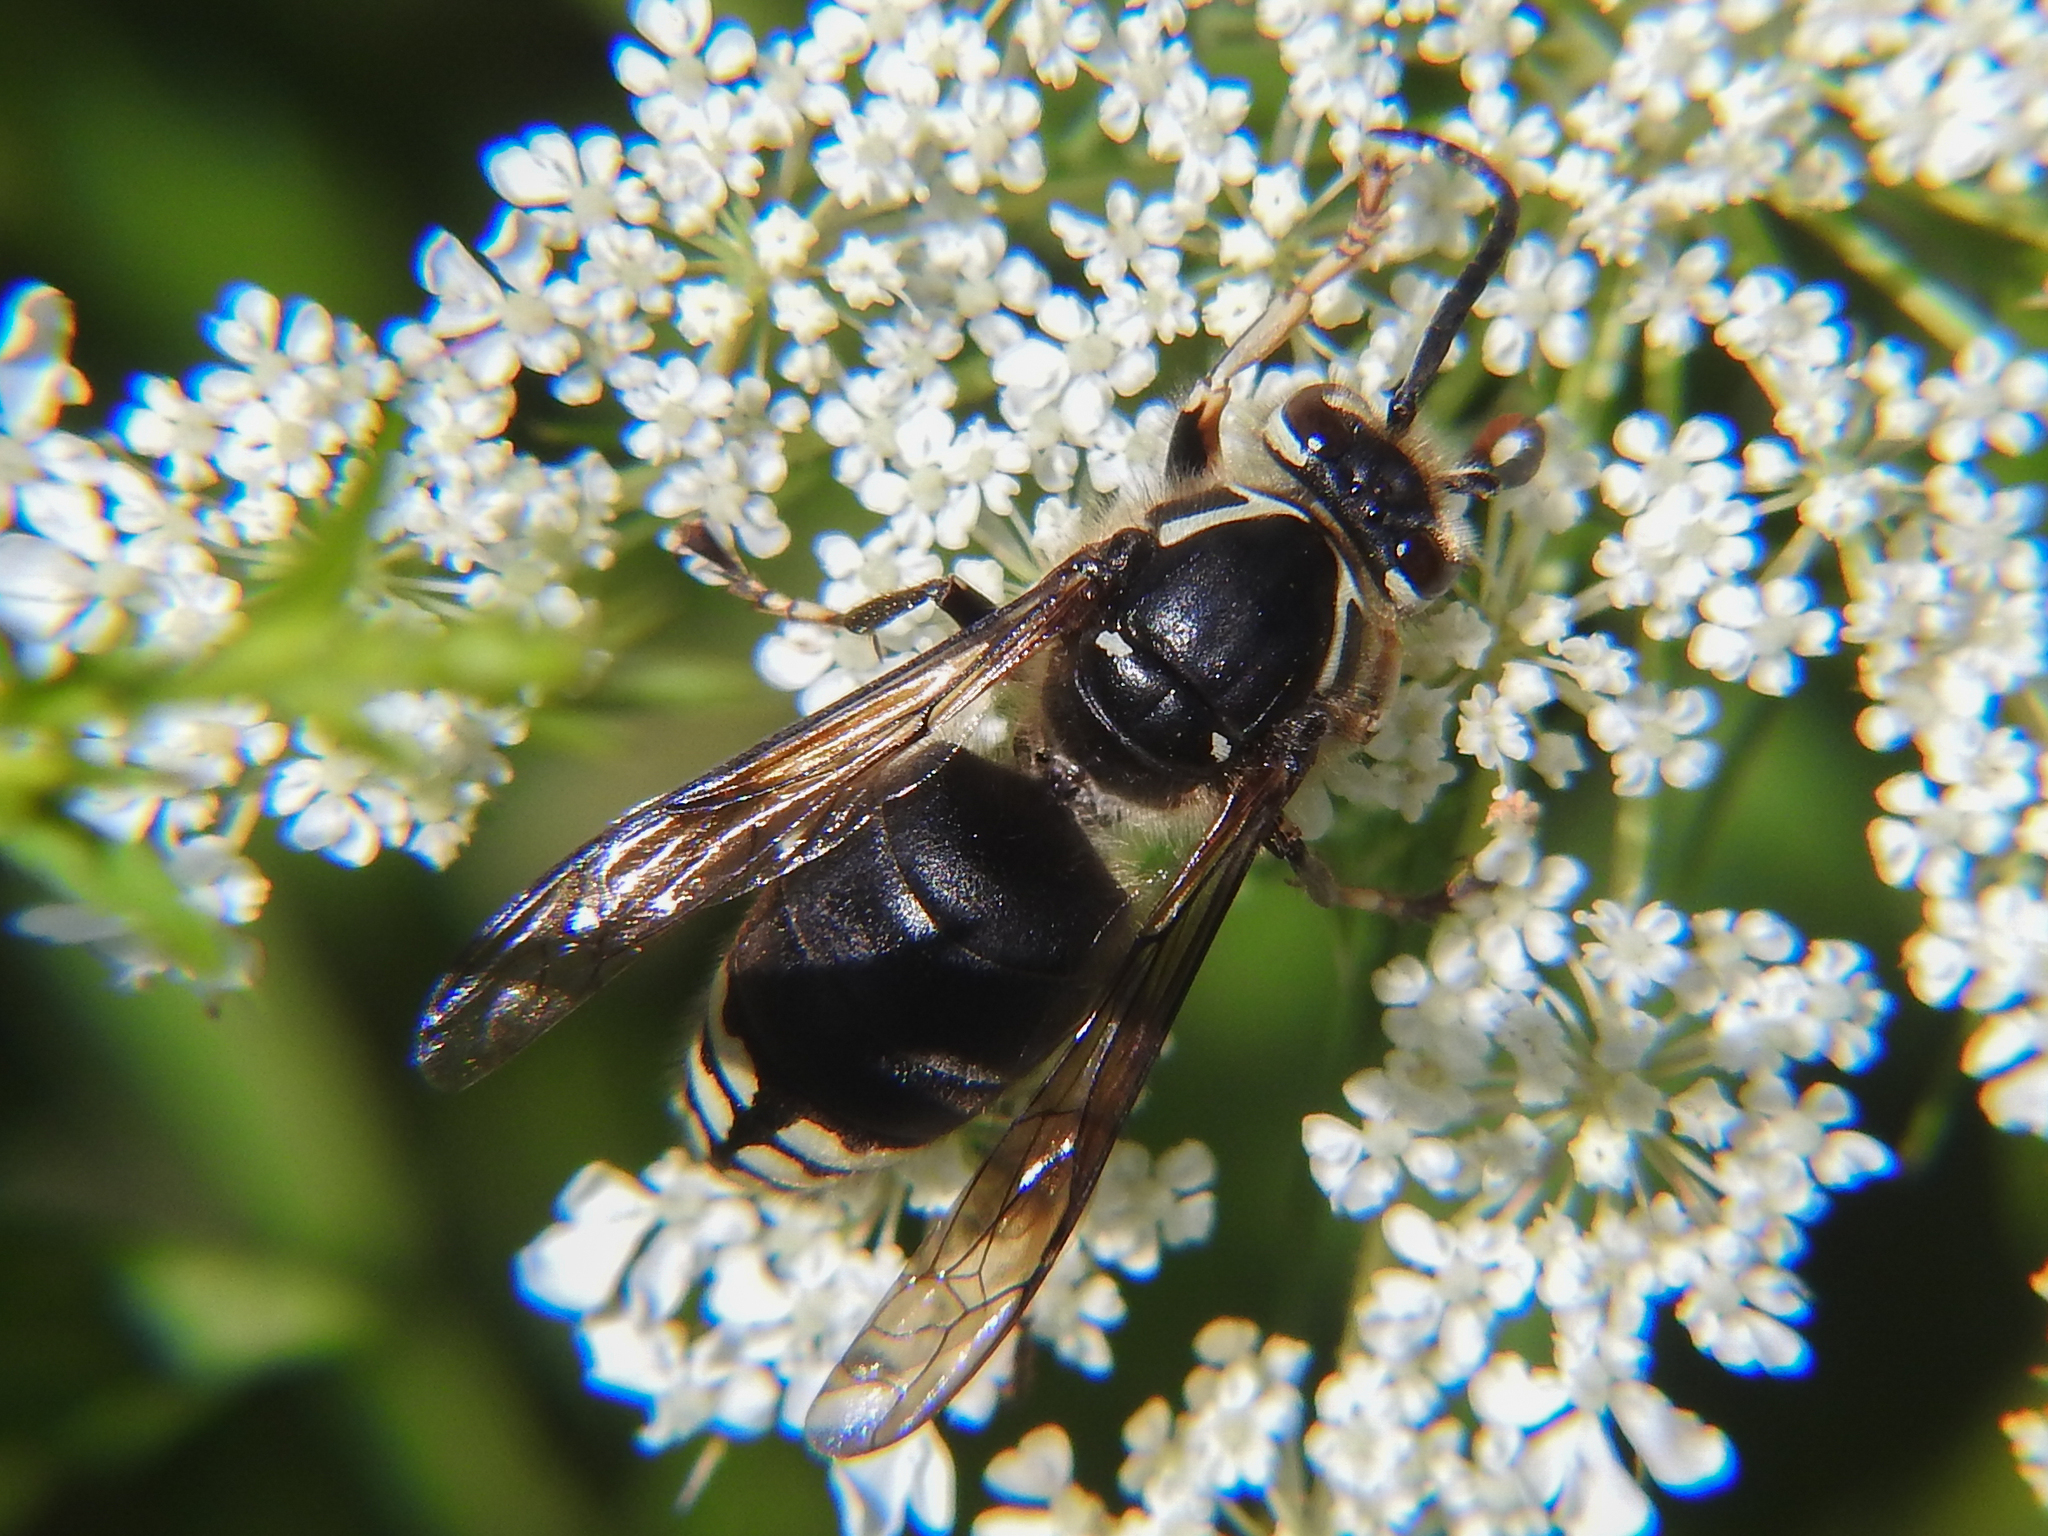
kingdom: Animalia
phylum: Arthropoda
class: Insecta
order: Hymenoptera
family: Vespidae
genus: Dolichovespula
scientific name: Dolichovespula maculata
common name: Bald-faced hornet
